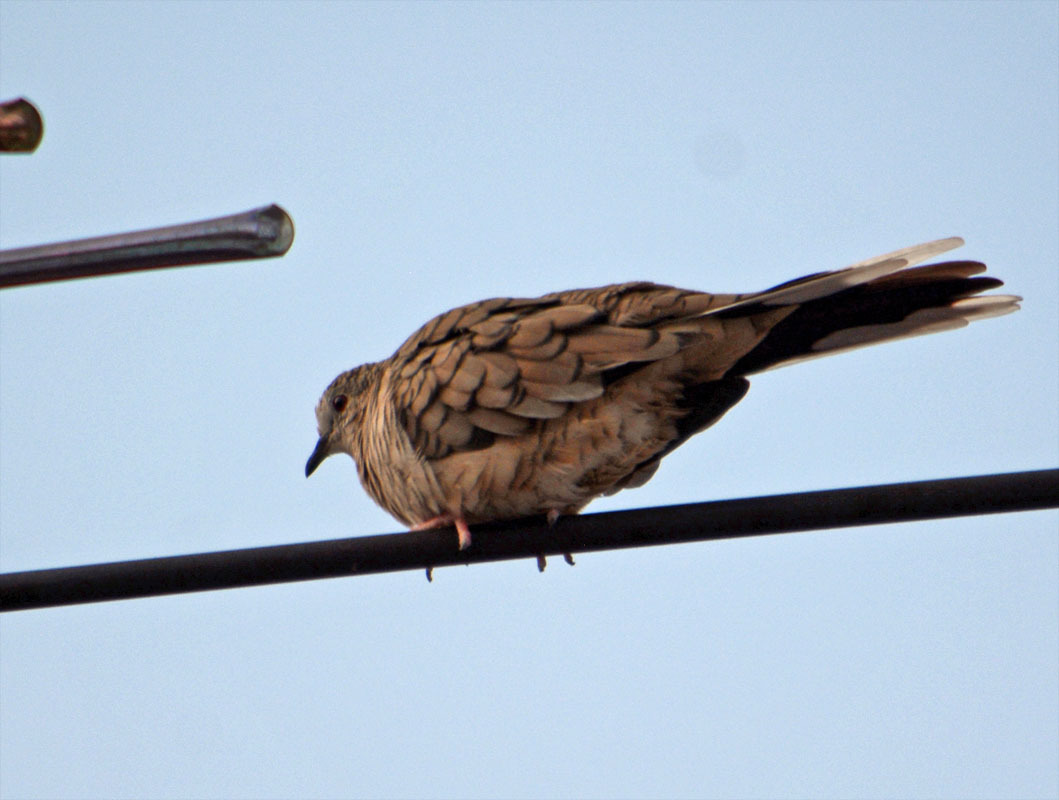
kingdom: Animalia
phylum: Chordata
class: Aves
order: Columbiformes
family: Columbidae
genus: Columbina
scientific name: Columbina inca
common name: Inca dove
